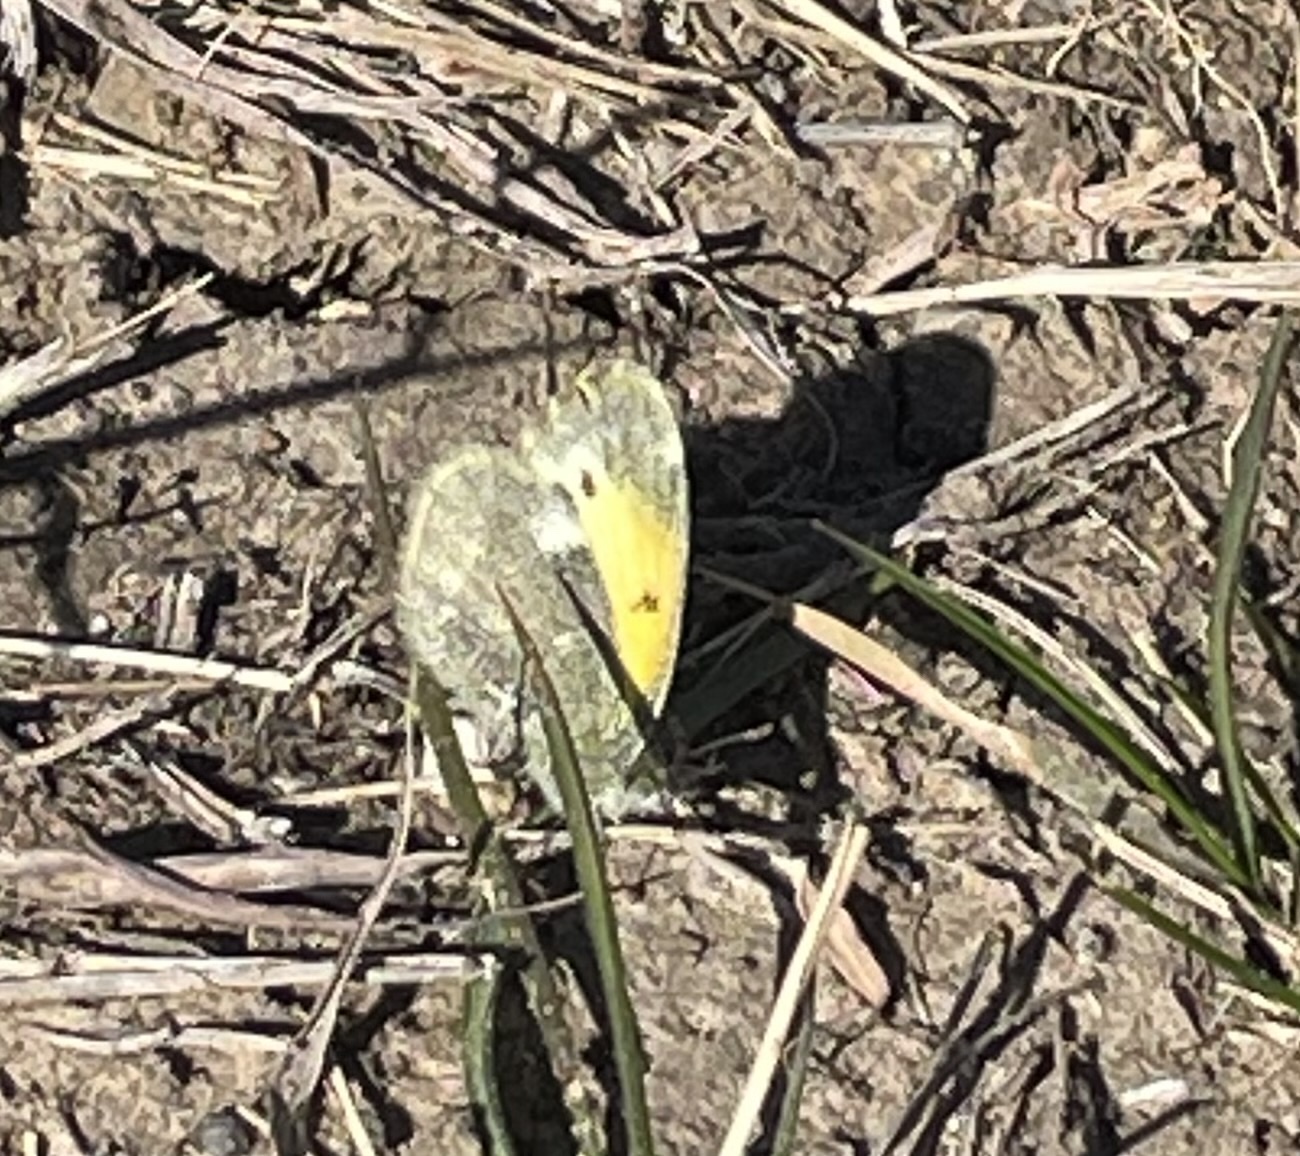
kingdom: Animalia
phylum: Arthropoda
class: Insecta
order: Lepidoptera
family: Pieridae
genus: Nathalis
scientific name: Nathalis iole
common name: Dainty sulphur
